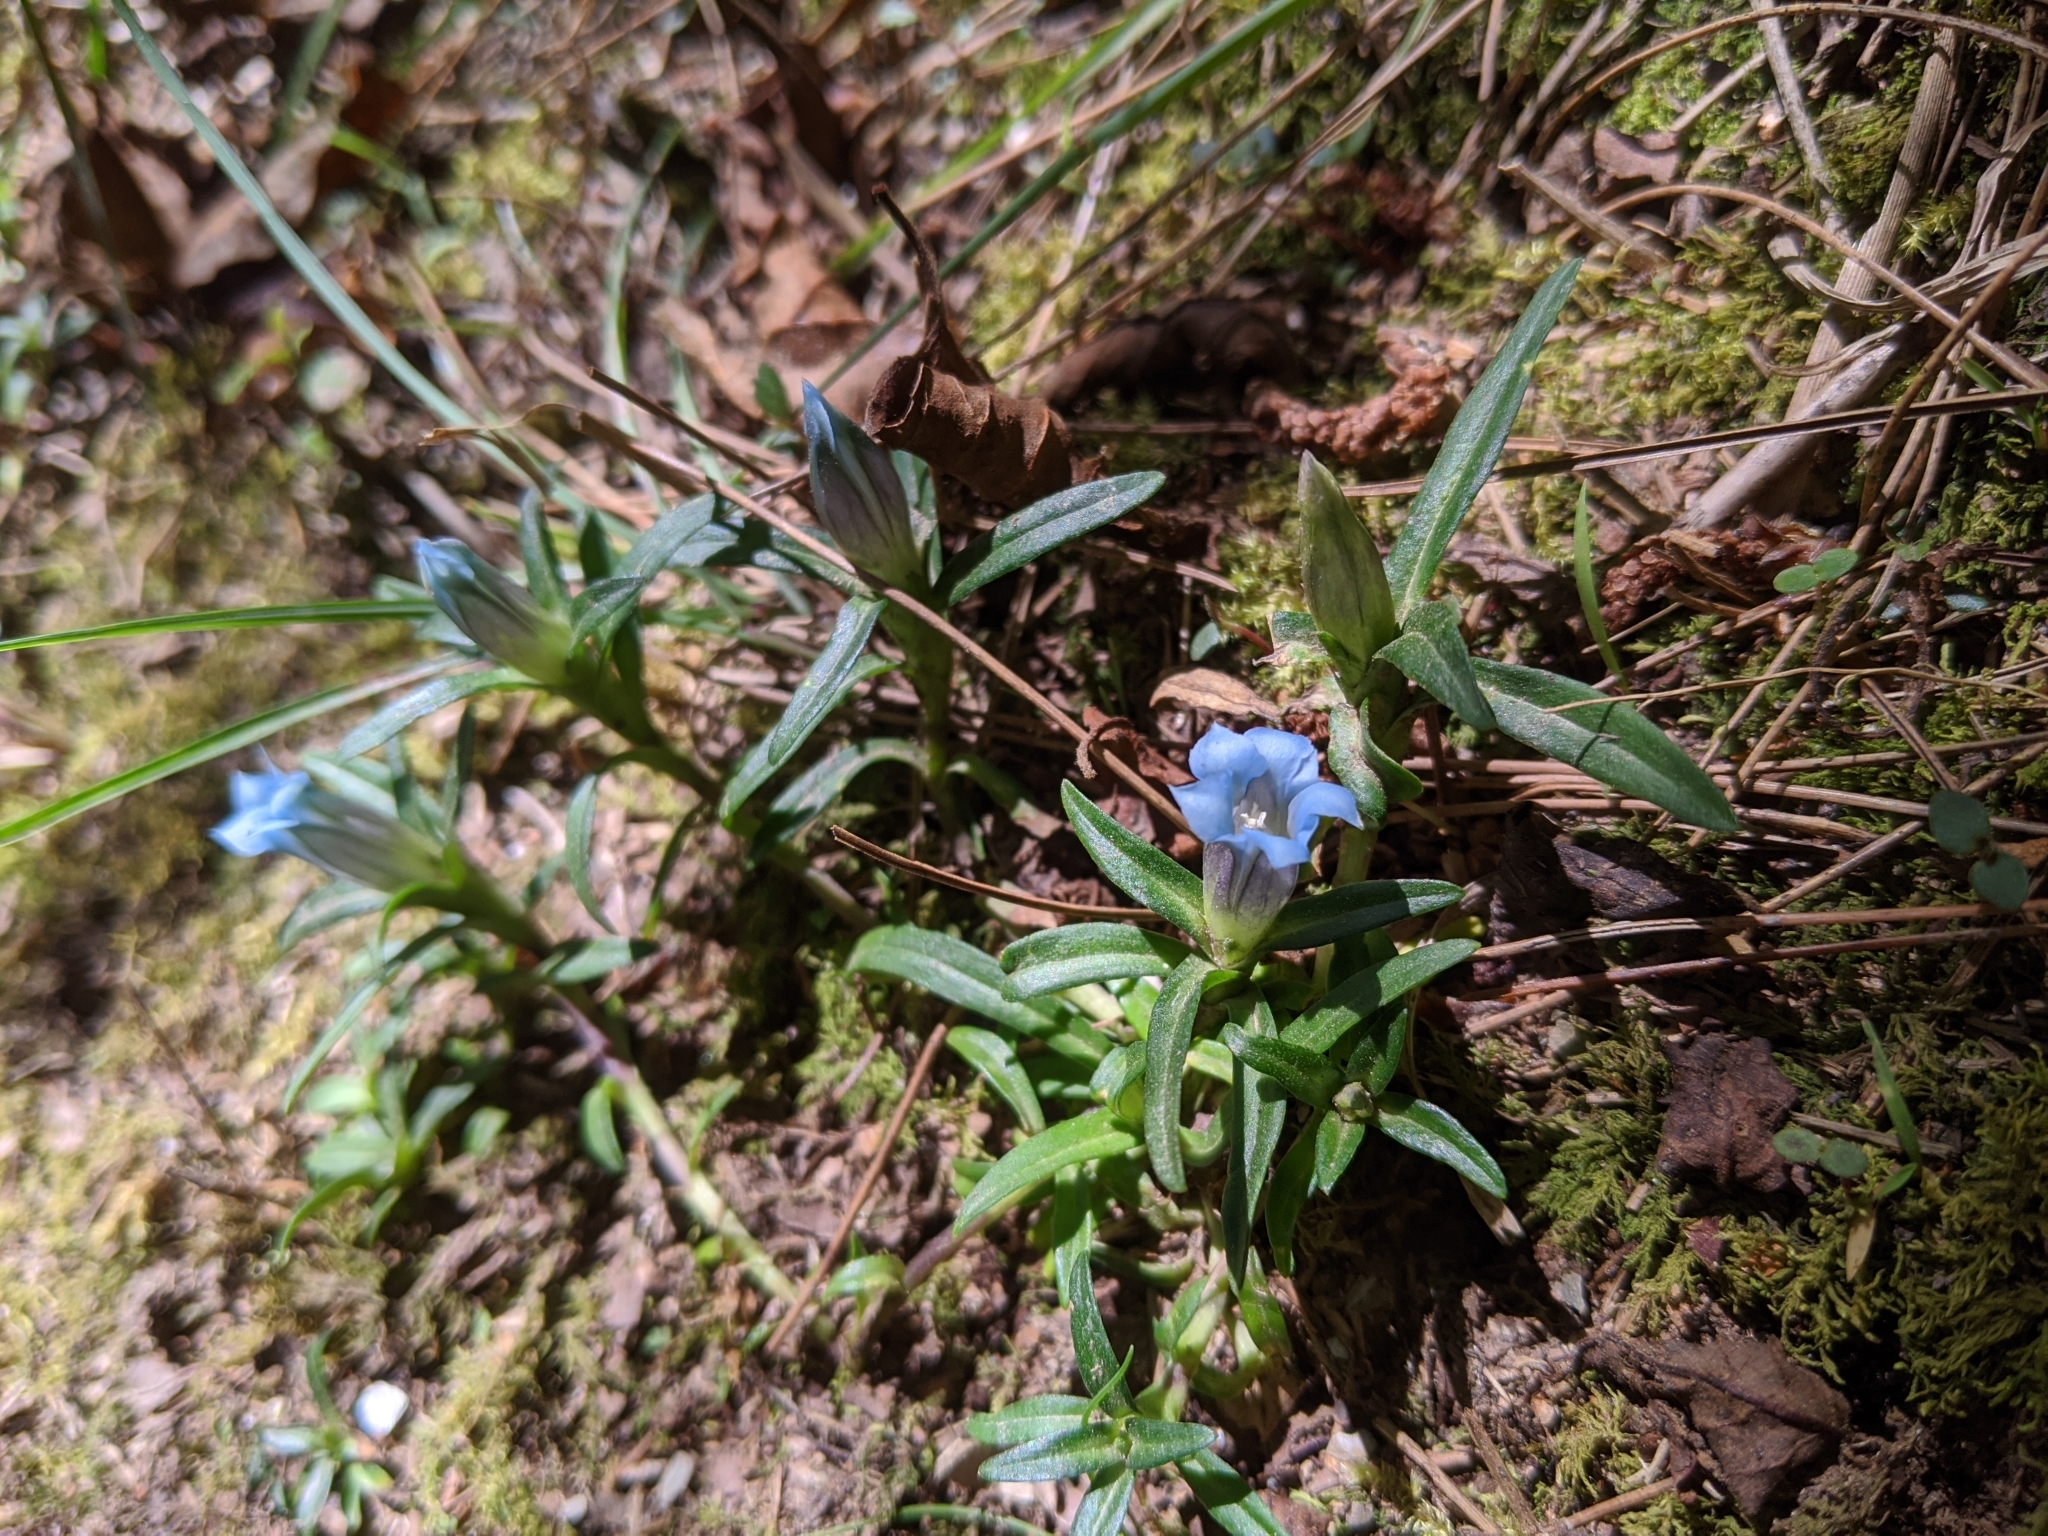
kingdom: Plantae
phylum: Tracheophyta
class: Magnoliopsida
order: Gentianales
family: Gentianaceae
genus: Gentiana
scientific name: Gentiana davidii
